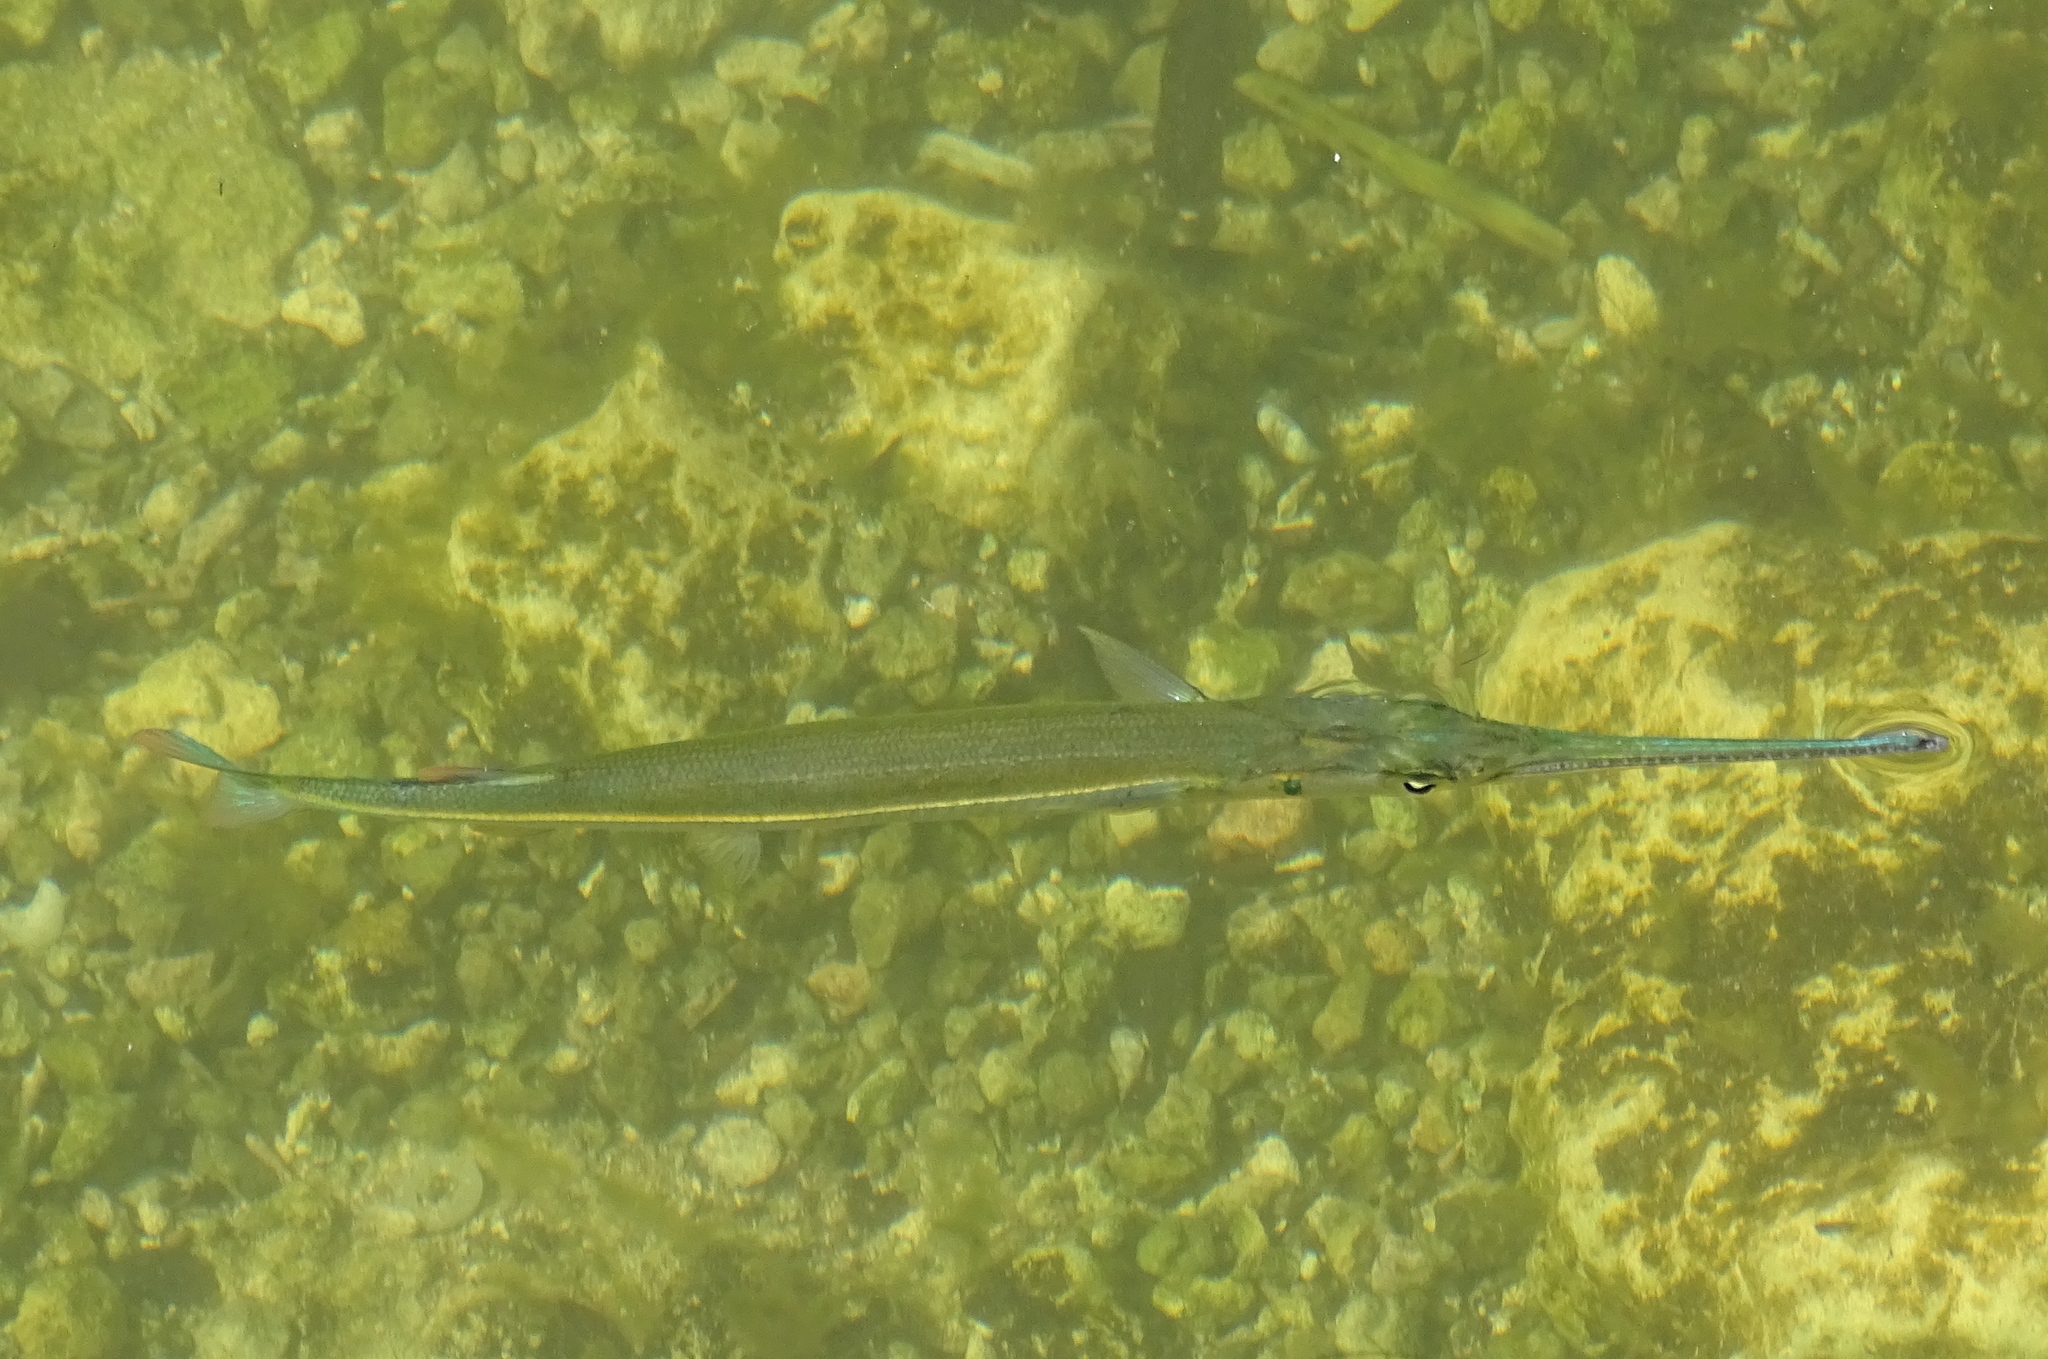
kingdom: Animalia
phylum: Chordata
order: Beloniformes
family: Belonidae
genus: Strongylura
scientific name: Strongylura notata
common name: Redfin needlefish
